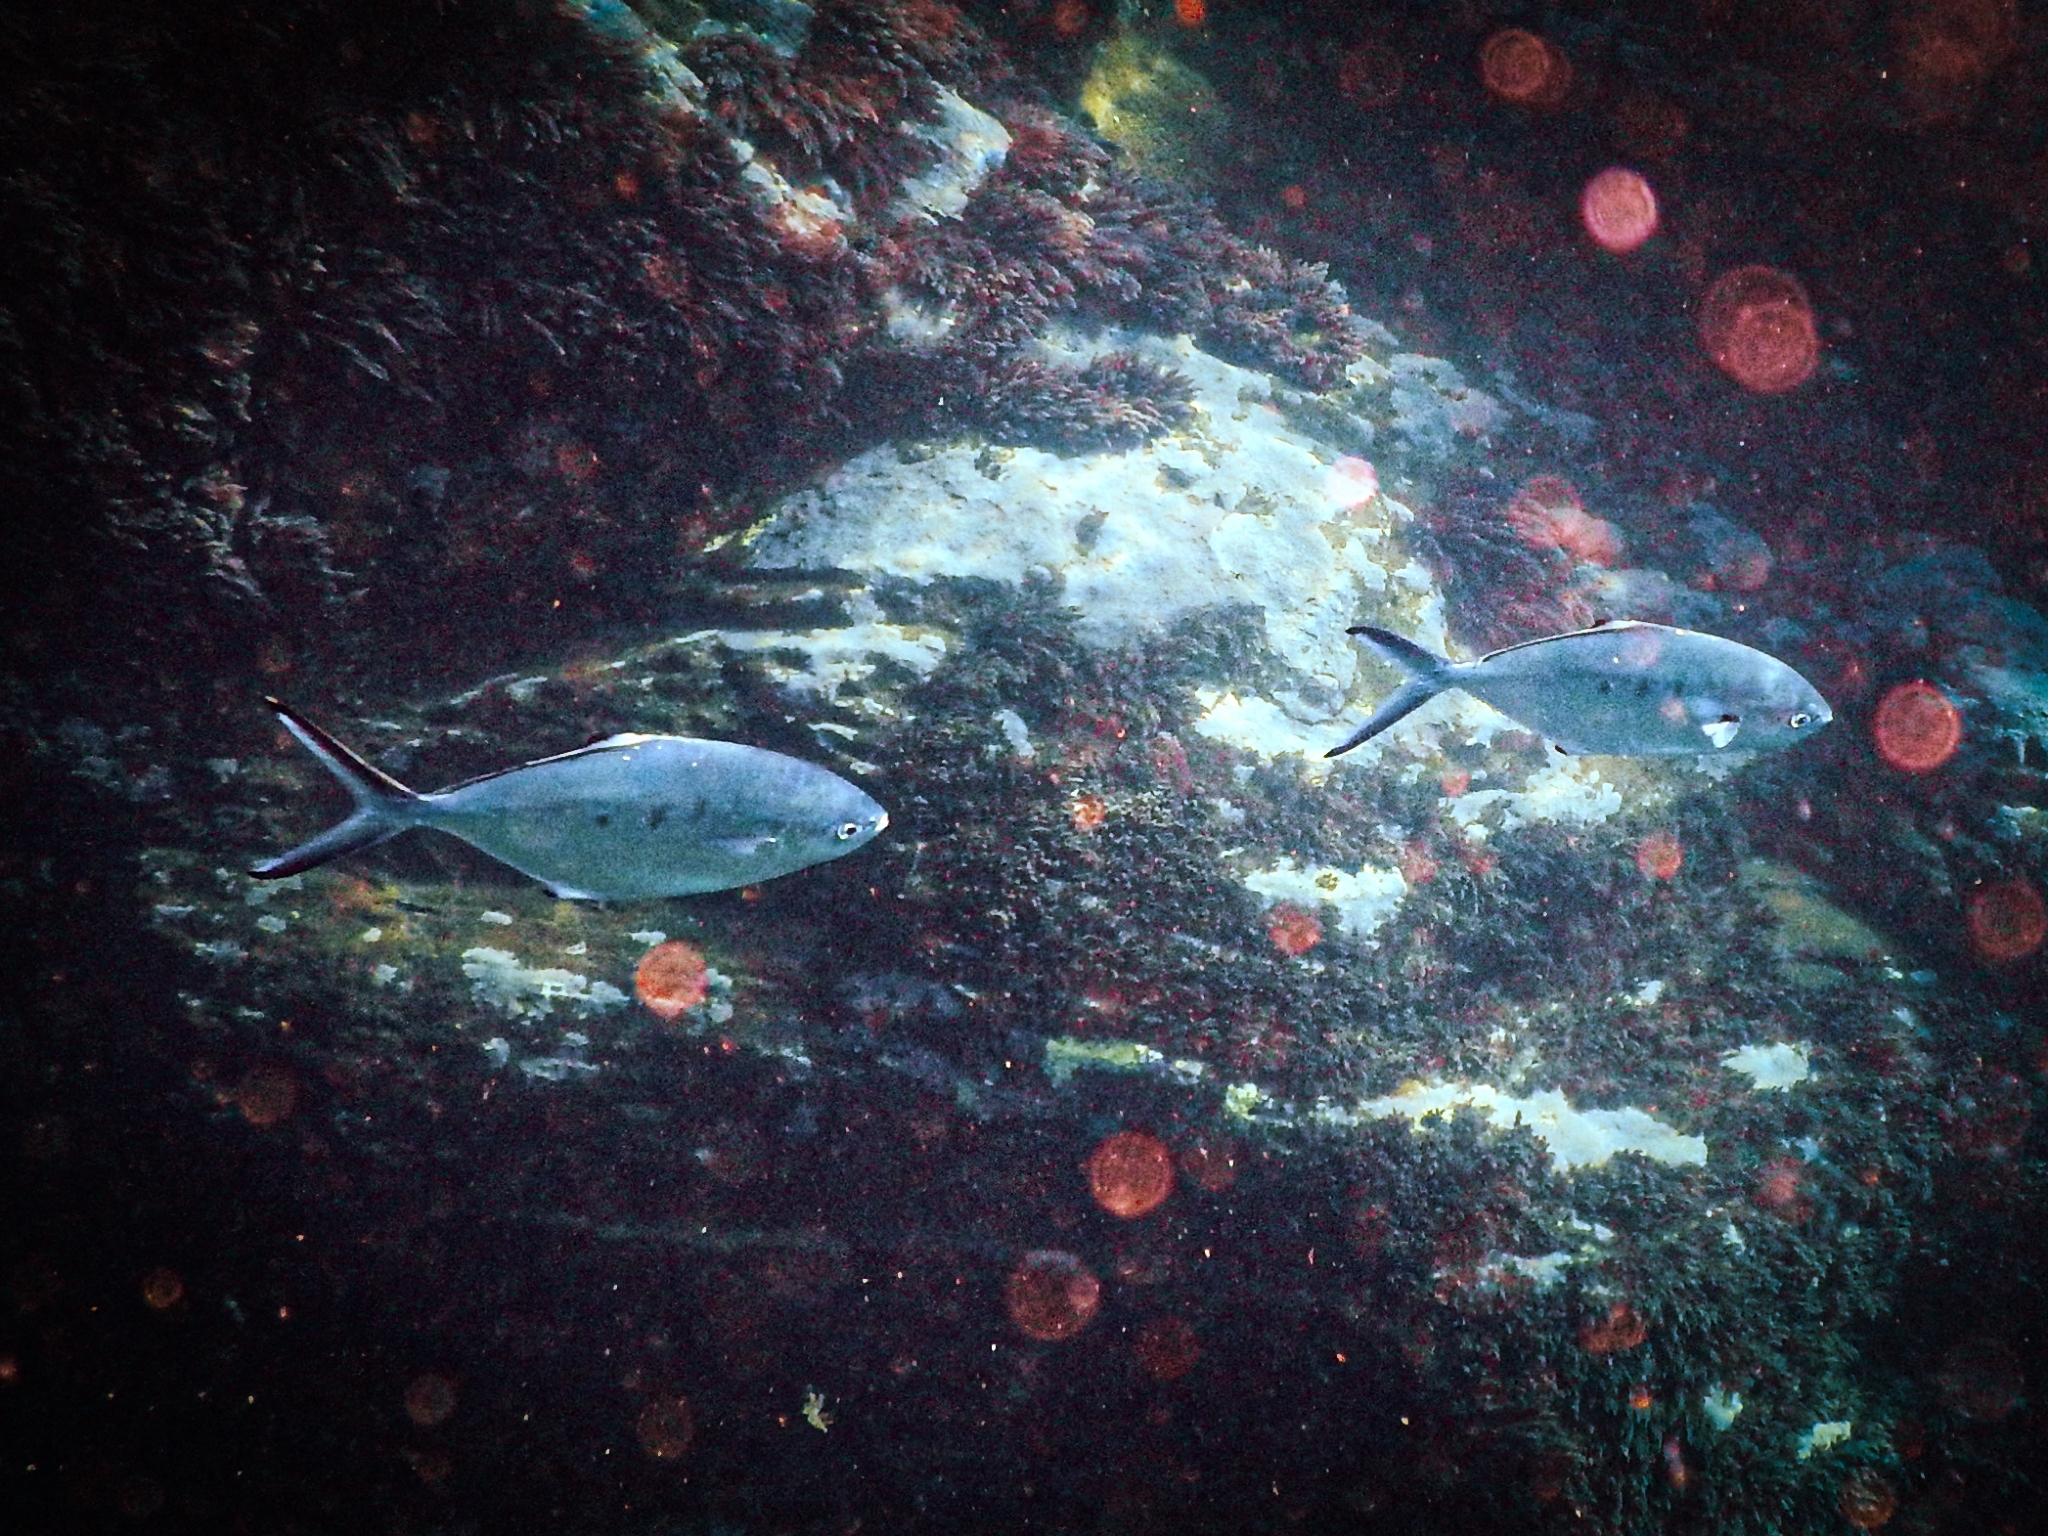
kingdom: Animalia
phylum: Chordata
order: Perciformes
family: Carangidae
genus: Trachinotus
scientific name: Trachinotus ovatus
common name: Pompano
